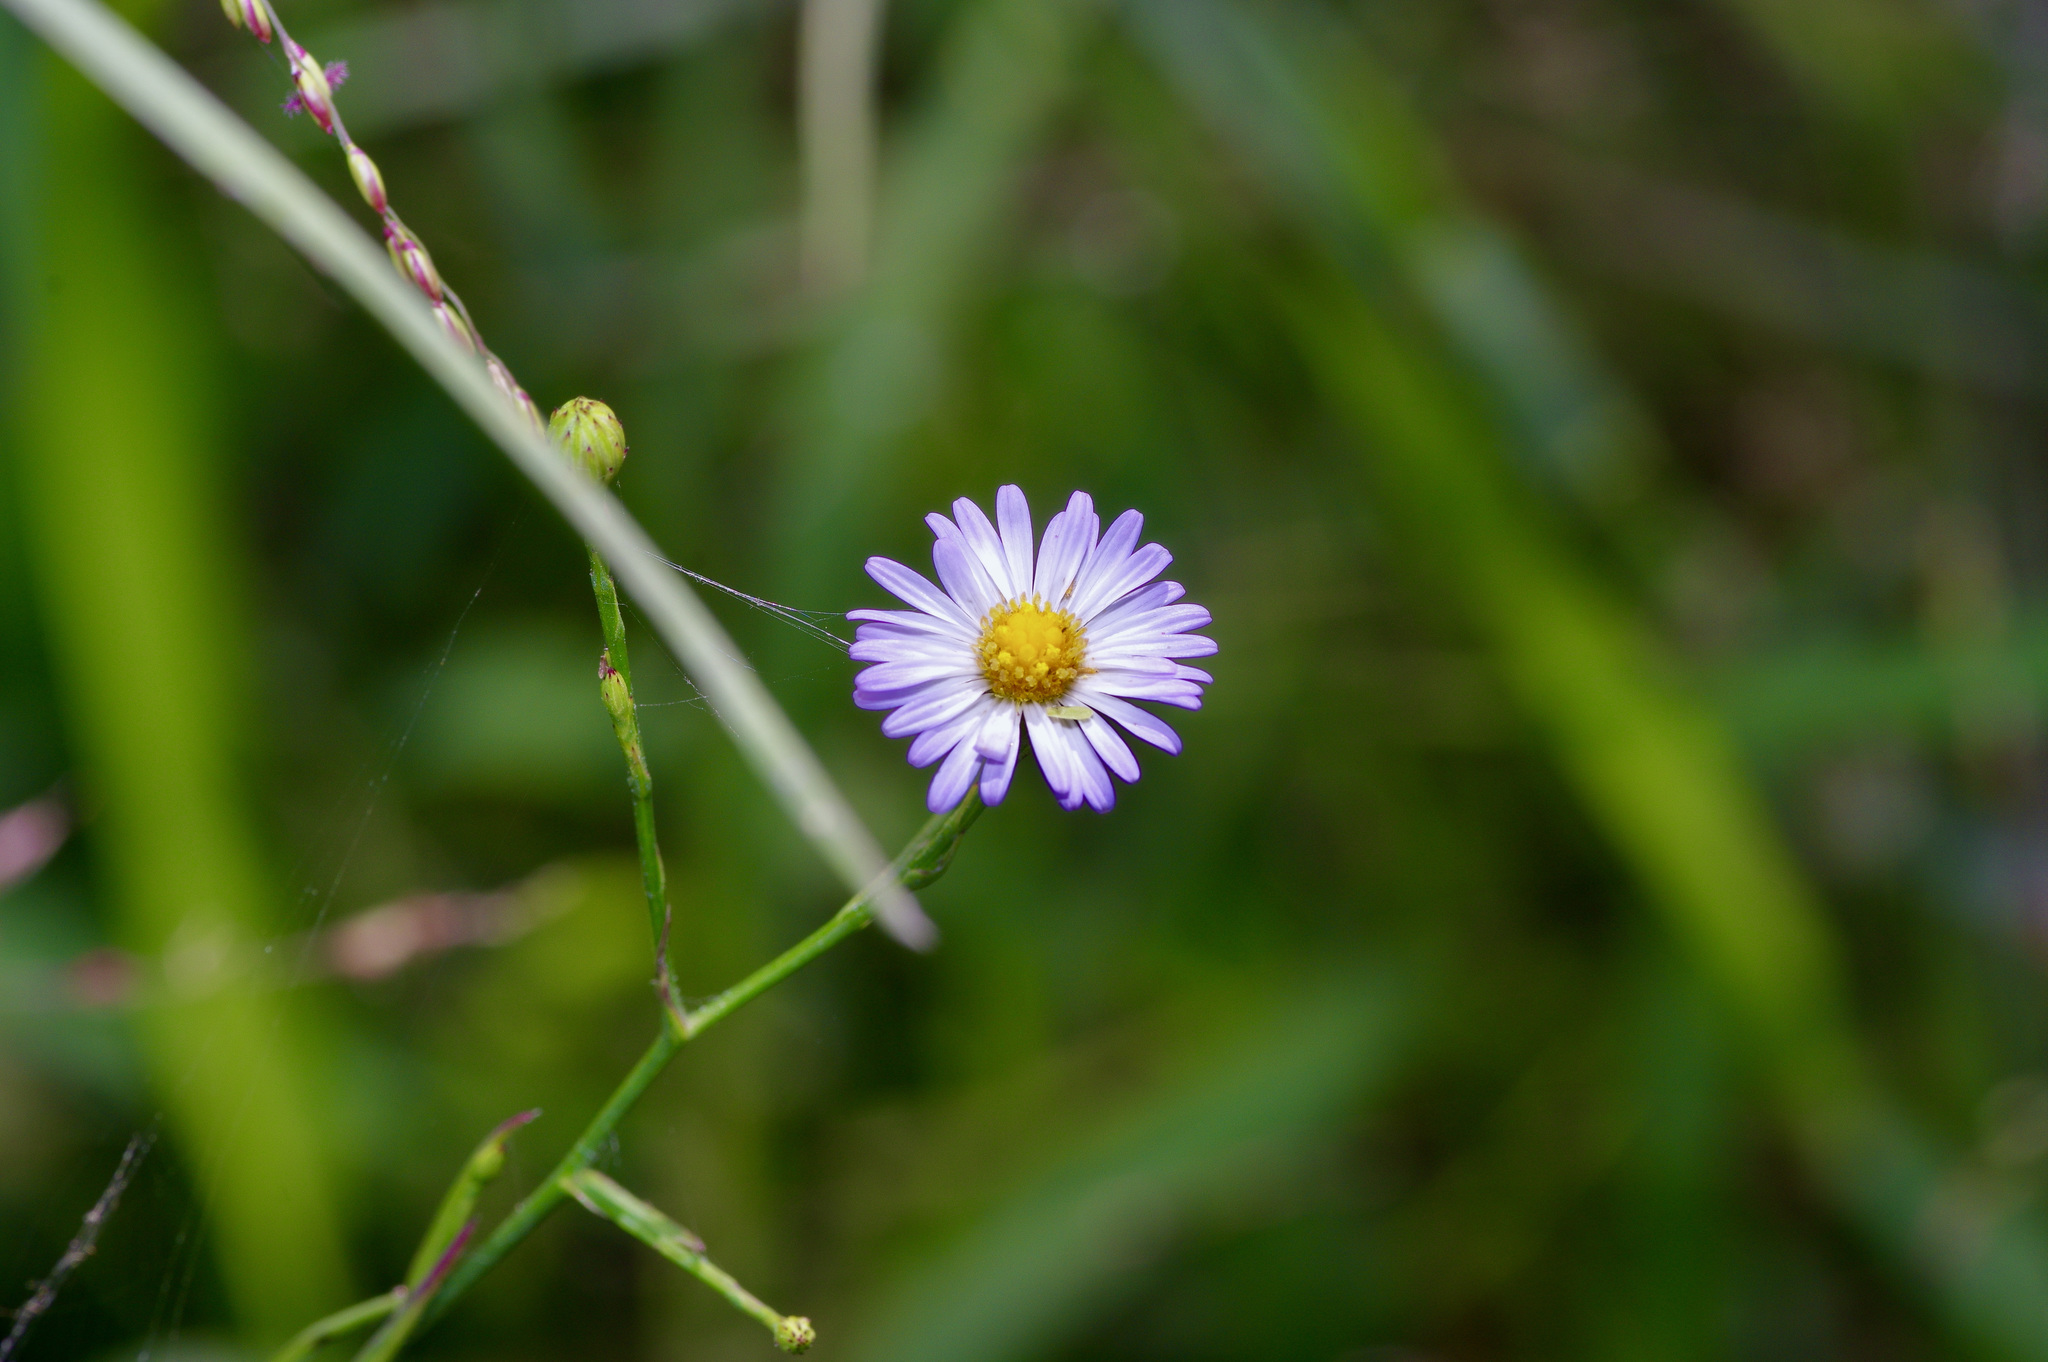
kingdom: Plantae
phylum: Tracheophyta
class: Magnoliopsida
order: Asterales
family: Asteraceae
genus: Symphyotrichum
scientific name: Symphyotrichum divaricatum
